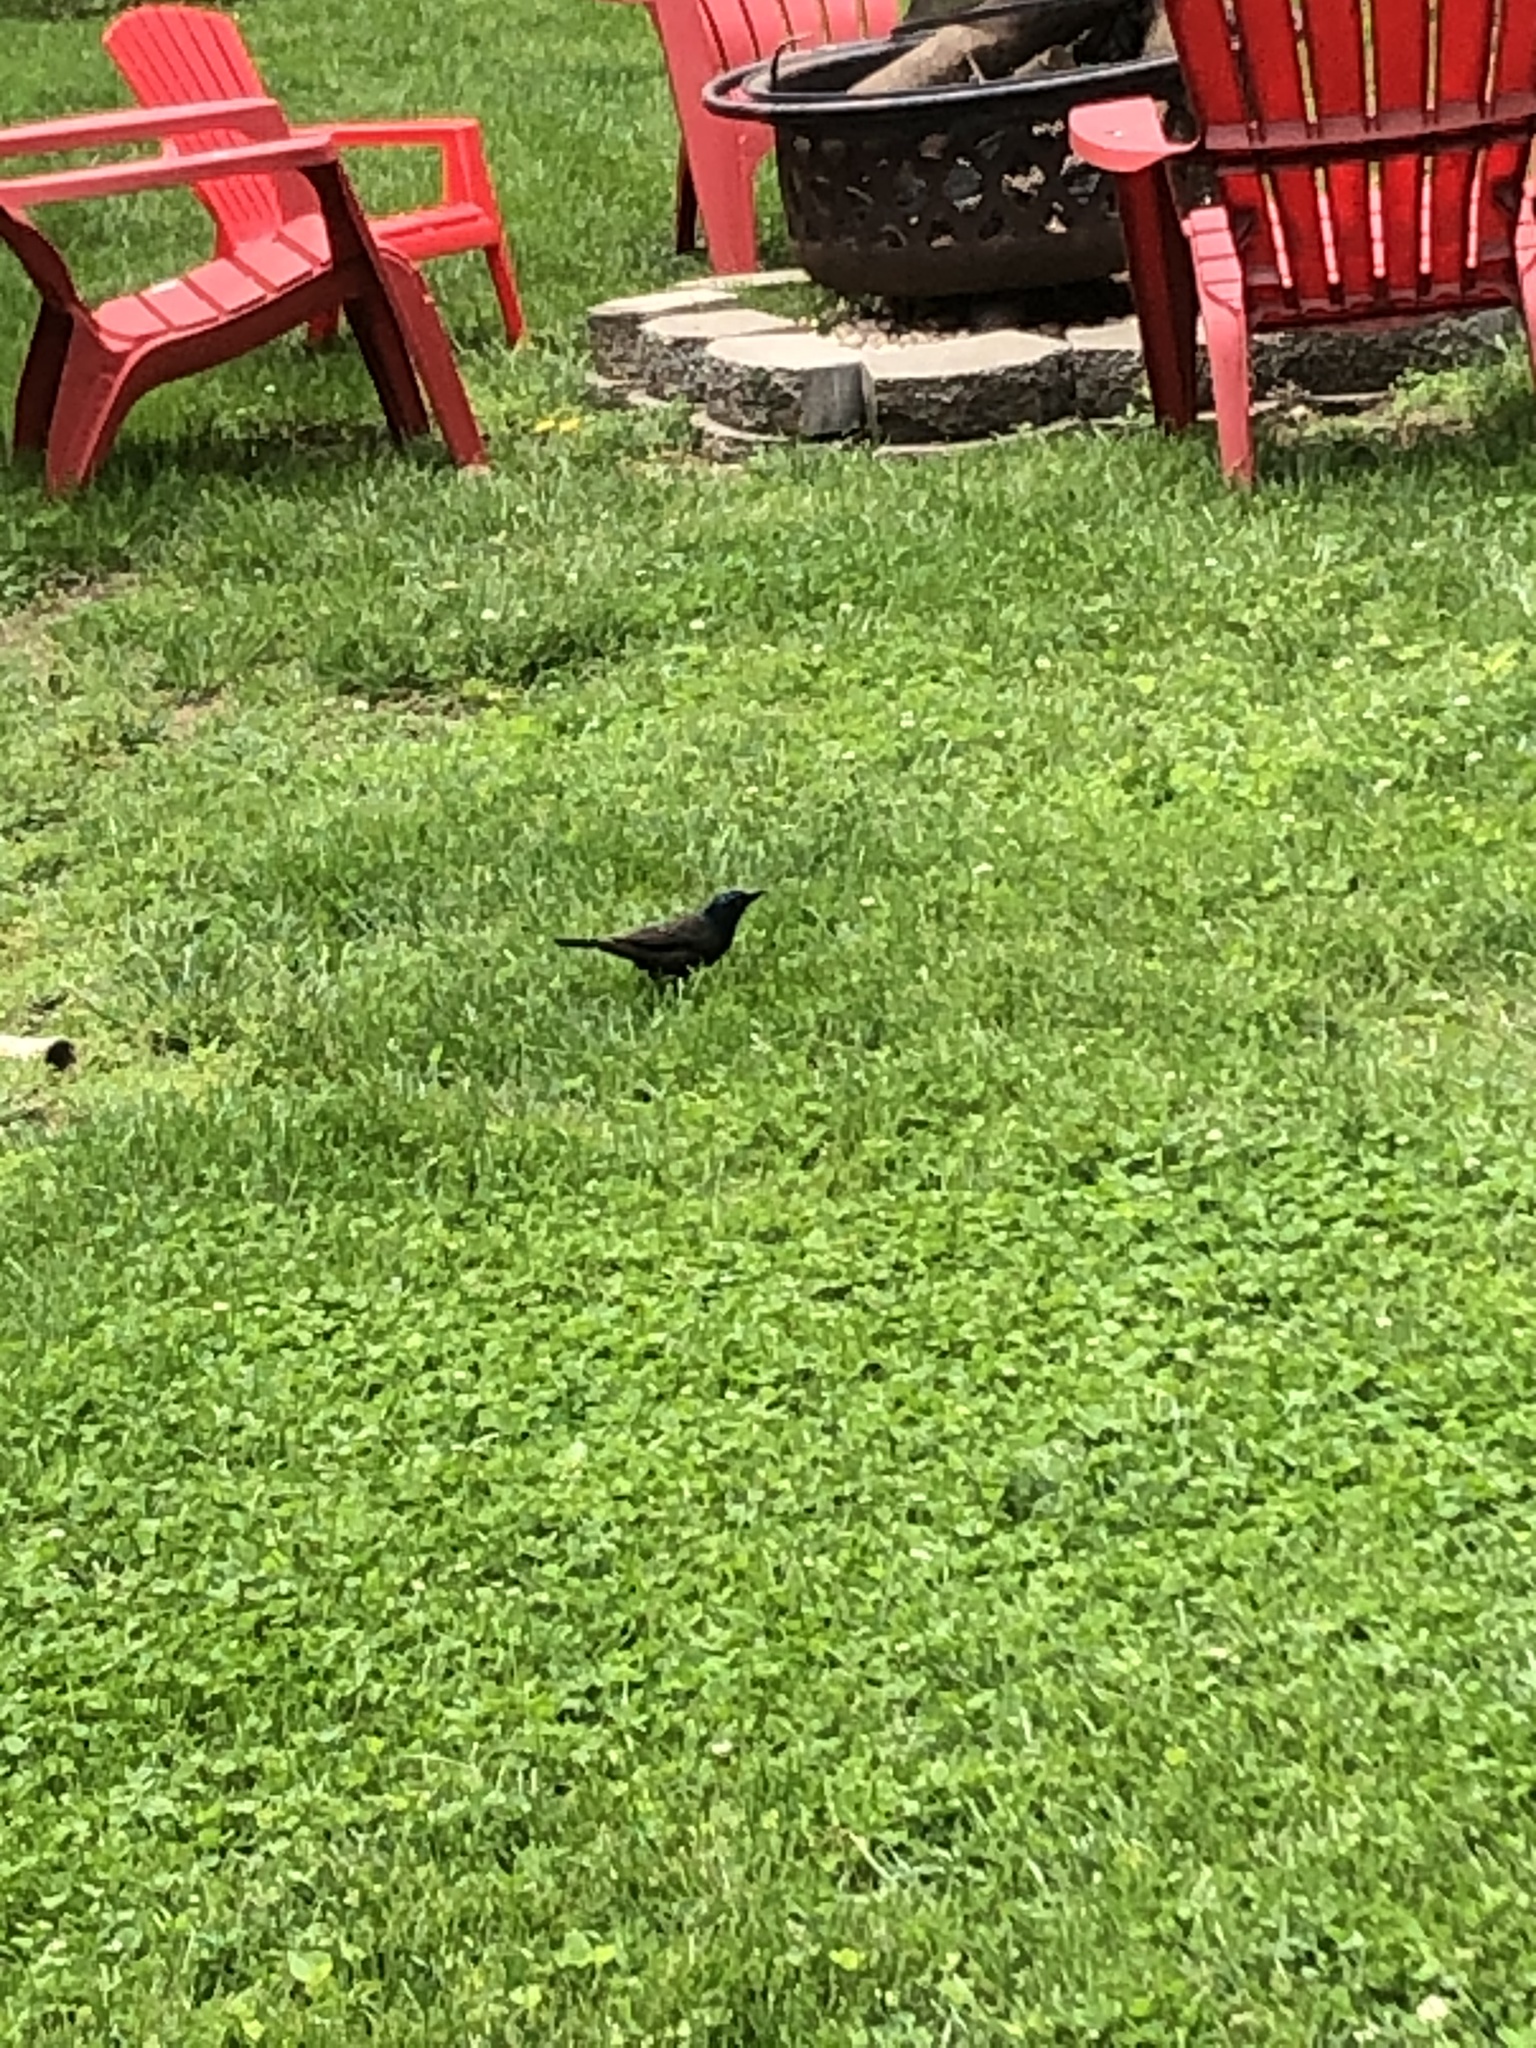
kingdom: Animalia
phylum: Chordata
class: Aves
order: Passeriformes
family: Icteridae
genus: Quiscalus
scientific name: Quiscalus quiscula
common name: Common grackle
